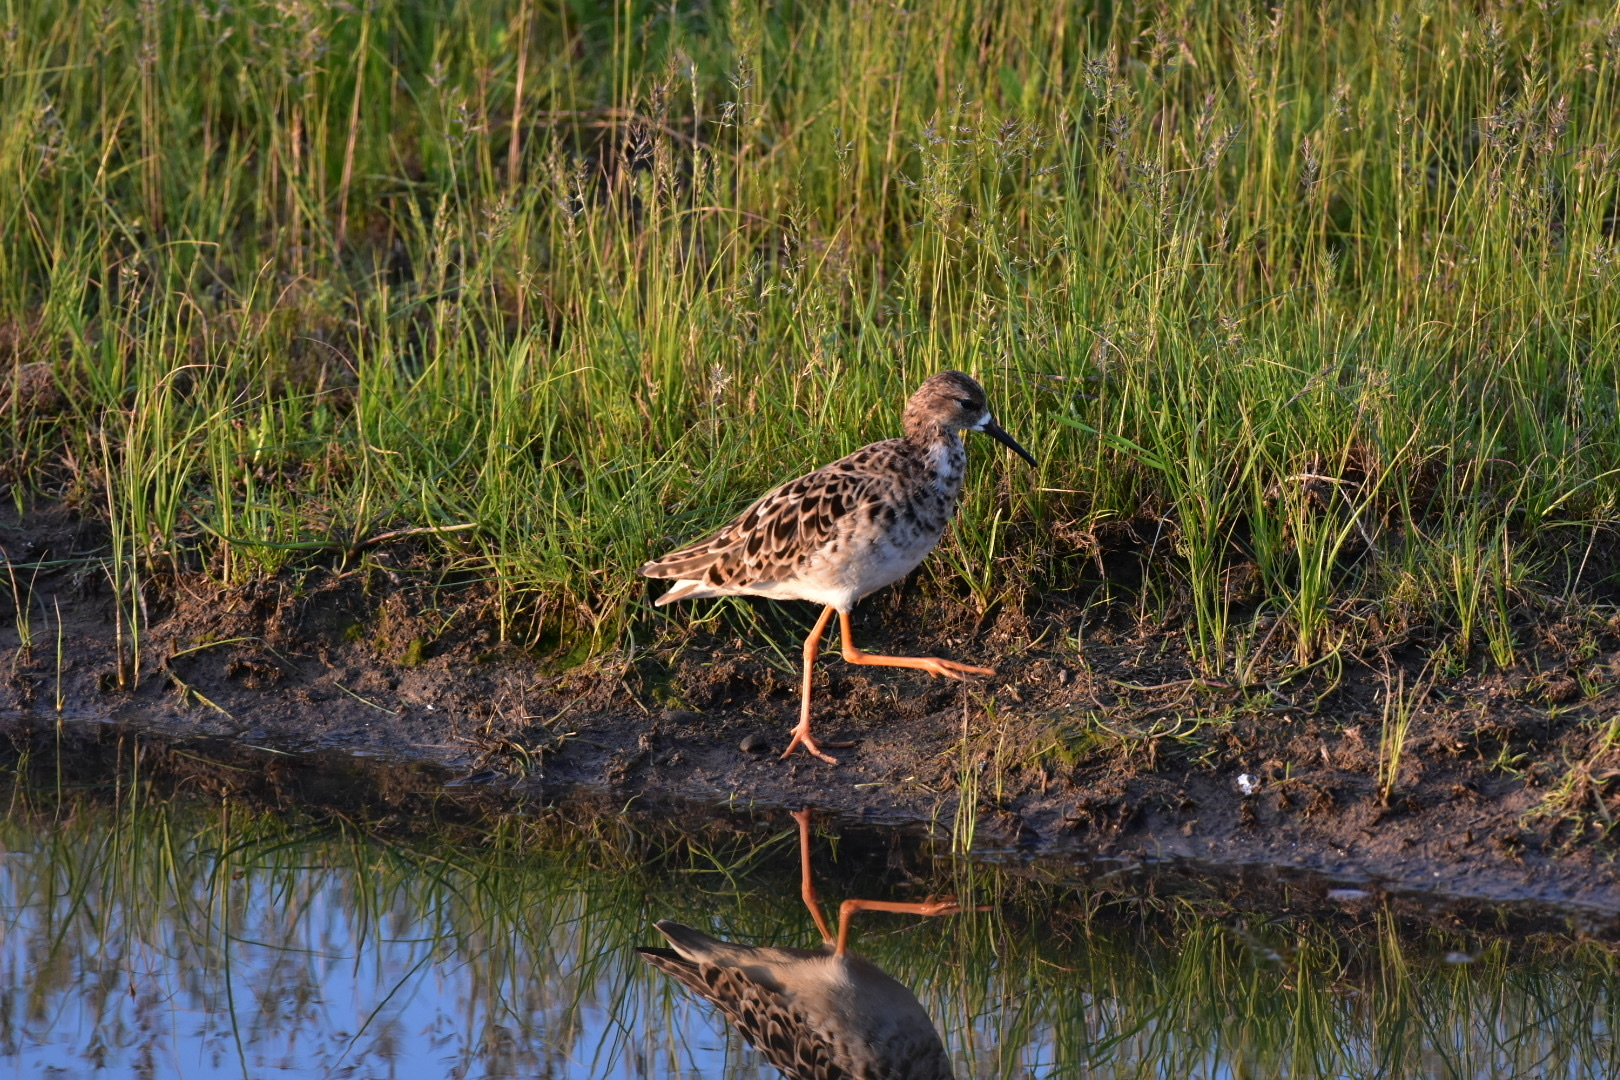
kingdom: Animalia
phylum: Chordata
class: Aves
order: Charadriiformes
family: Scolopacidae
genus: Calidris
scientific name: Calidris pugnax
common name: Ruff
